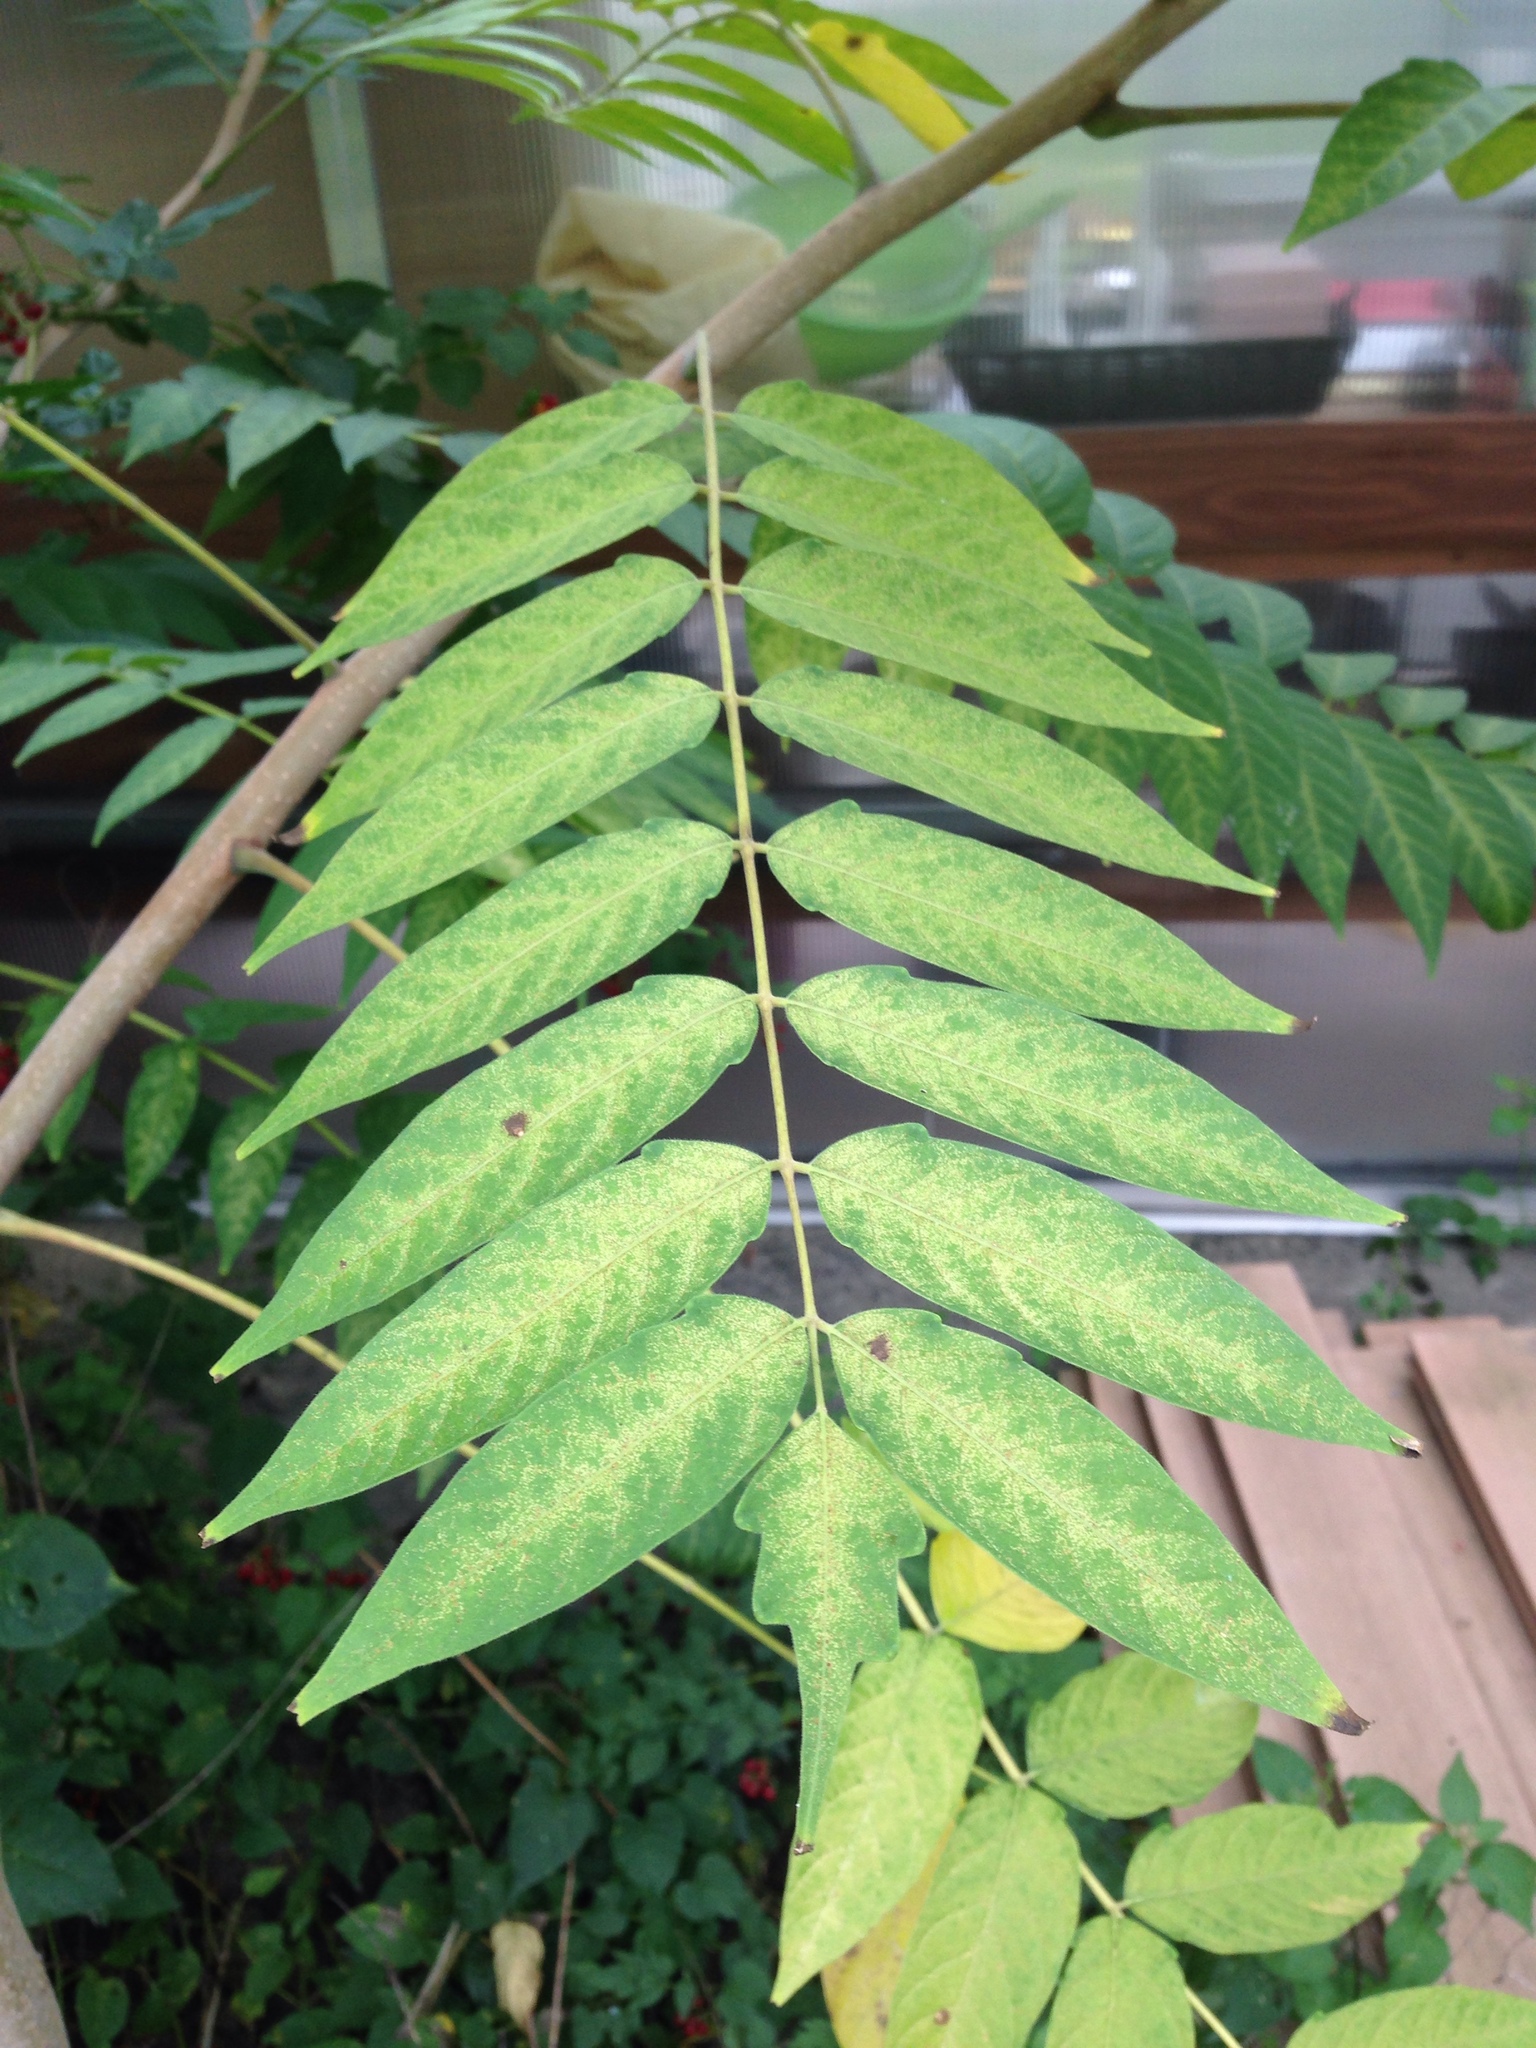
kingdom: Plantae
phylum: Tracheophyta
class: Magnoliopsida
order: Sapindales
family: Simaroubaceae
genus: Ailanthus
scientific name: Ailanthus altissima
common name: Tree-of-heaven
